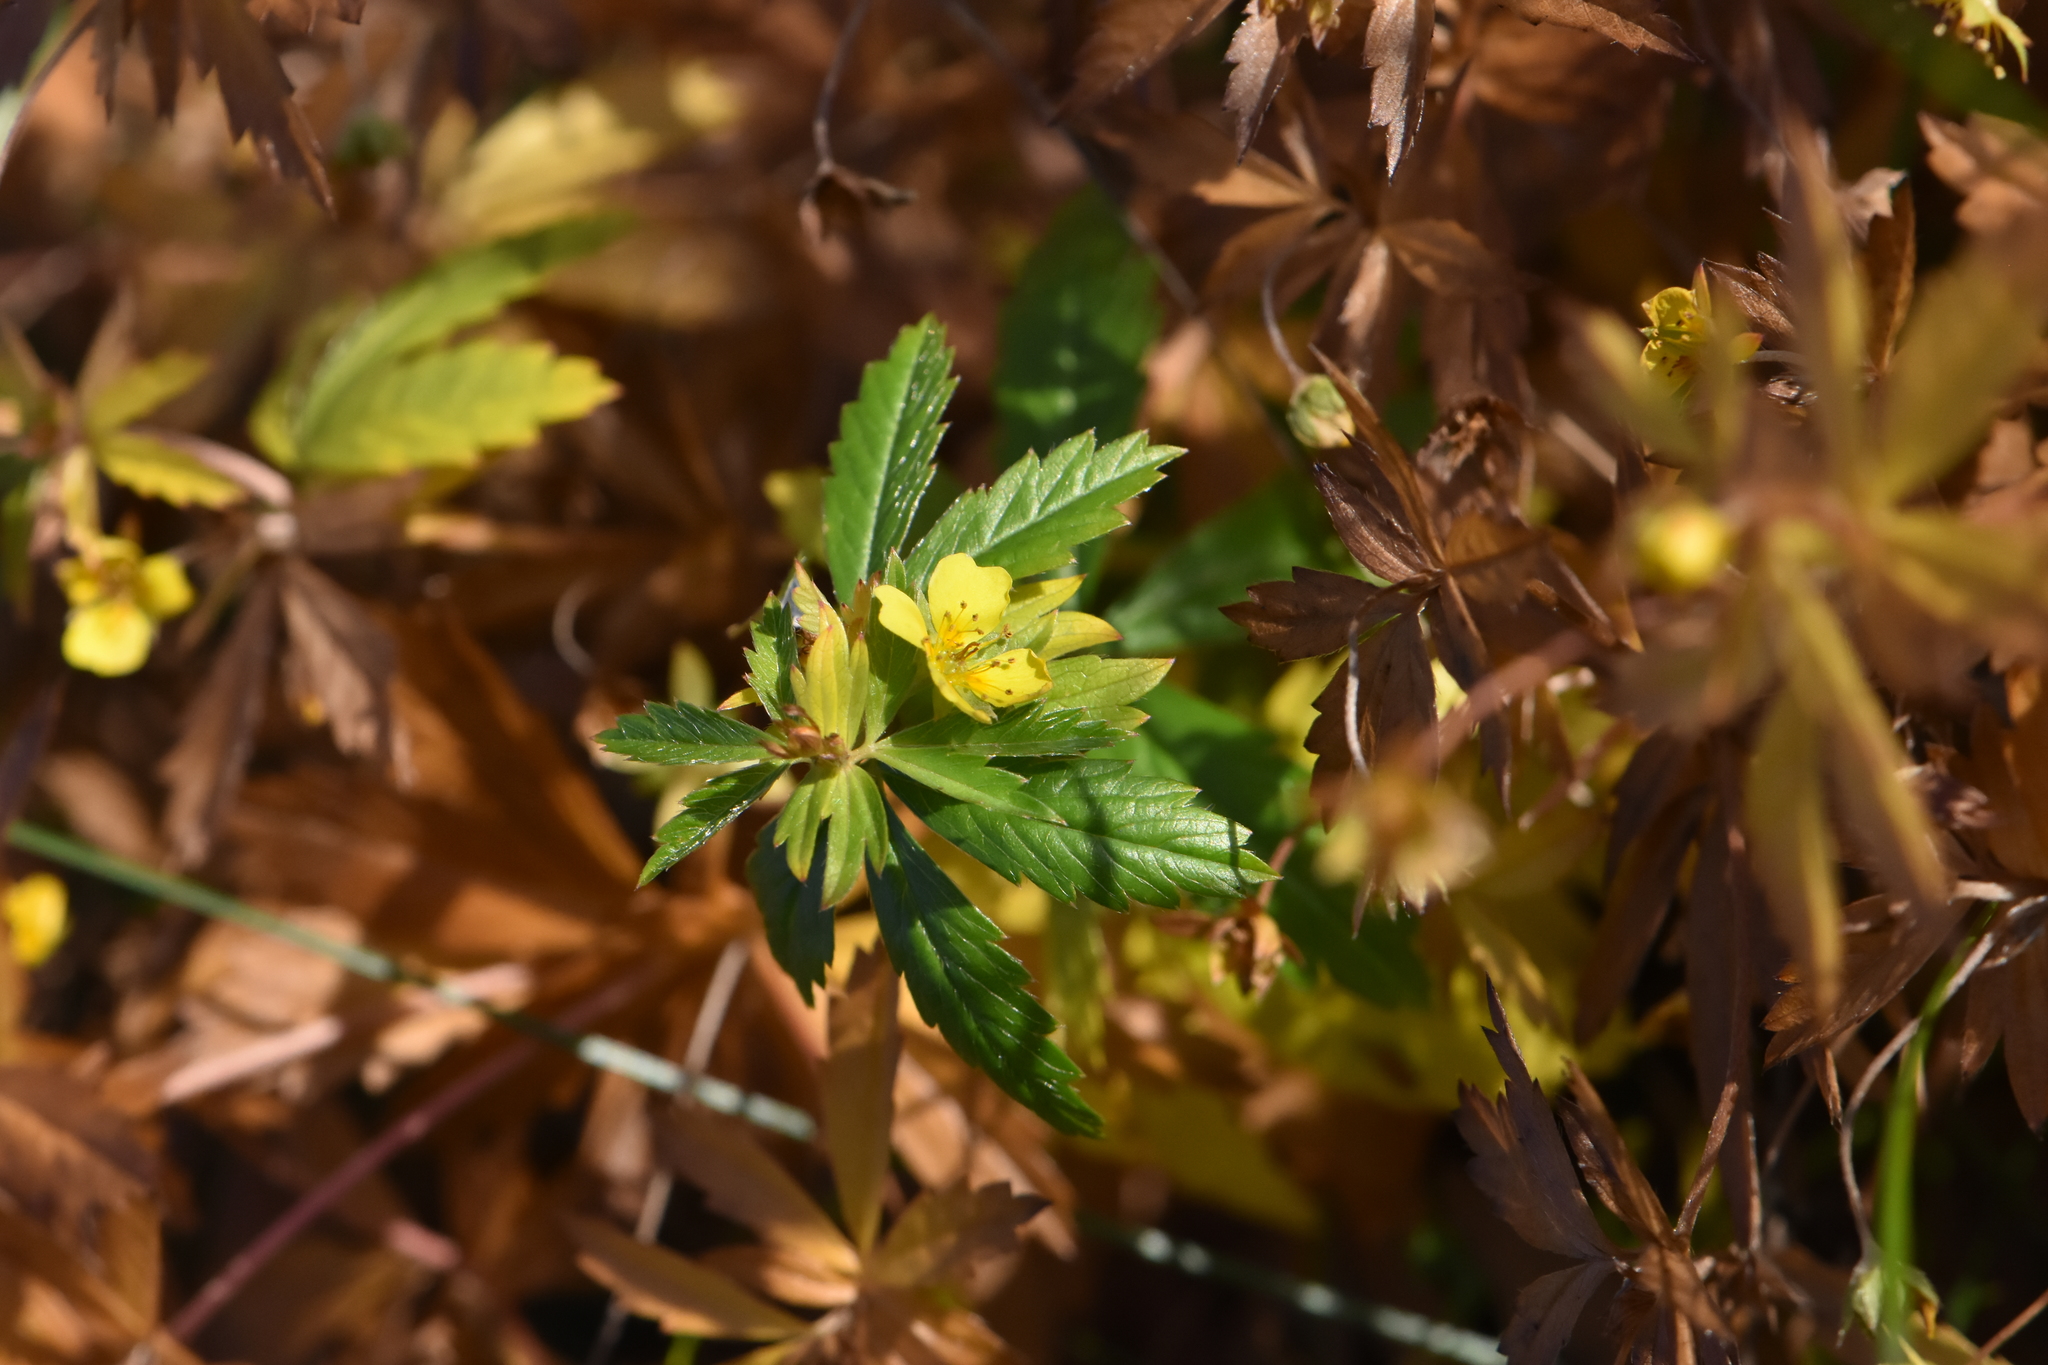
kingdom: Plantae
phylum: Tracheophyta
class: Magnoliopsida
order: Rosales
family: Rosaceae
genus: Potentilla
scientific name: Potentilla erecta
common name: Tormentil
